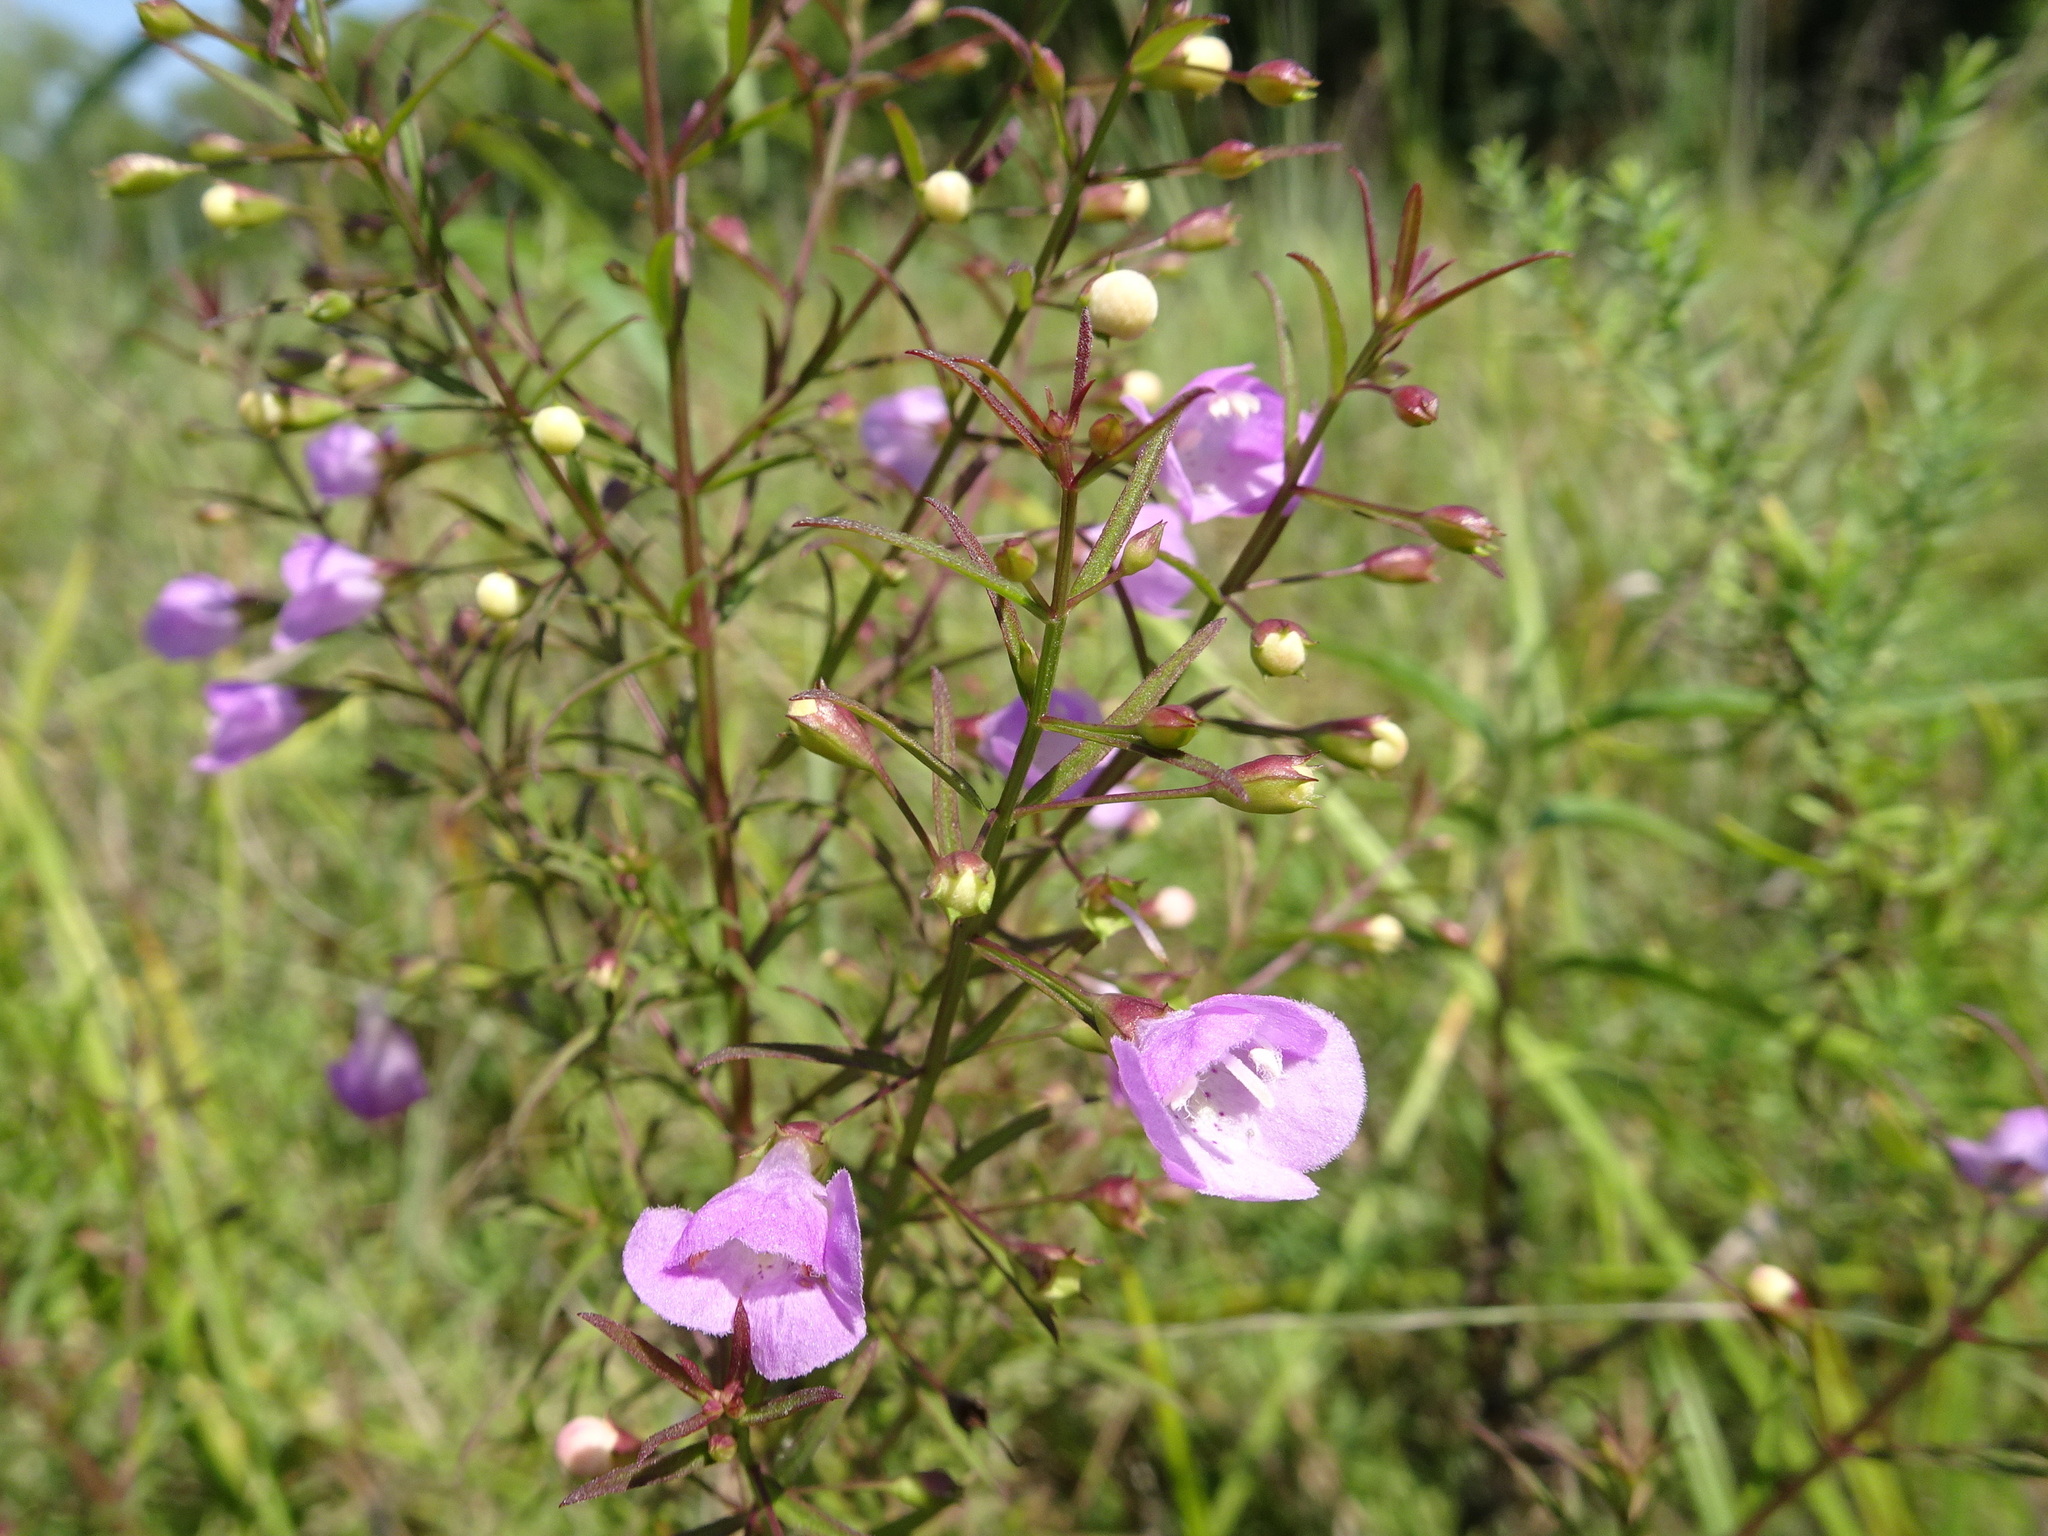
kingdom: Plantae
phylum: Tracheophyta
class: Magnoliopsida
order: Lamiales
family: Orobanchaceae
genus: Agalinis
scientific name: Agalinis tenuifolia
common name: Slender agalinis
